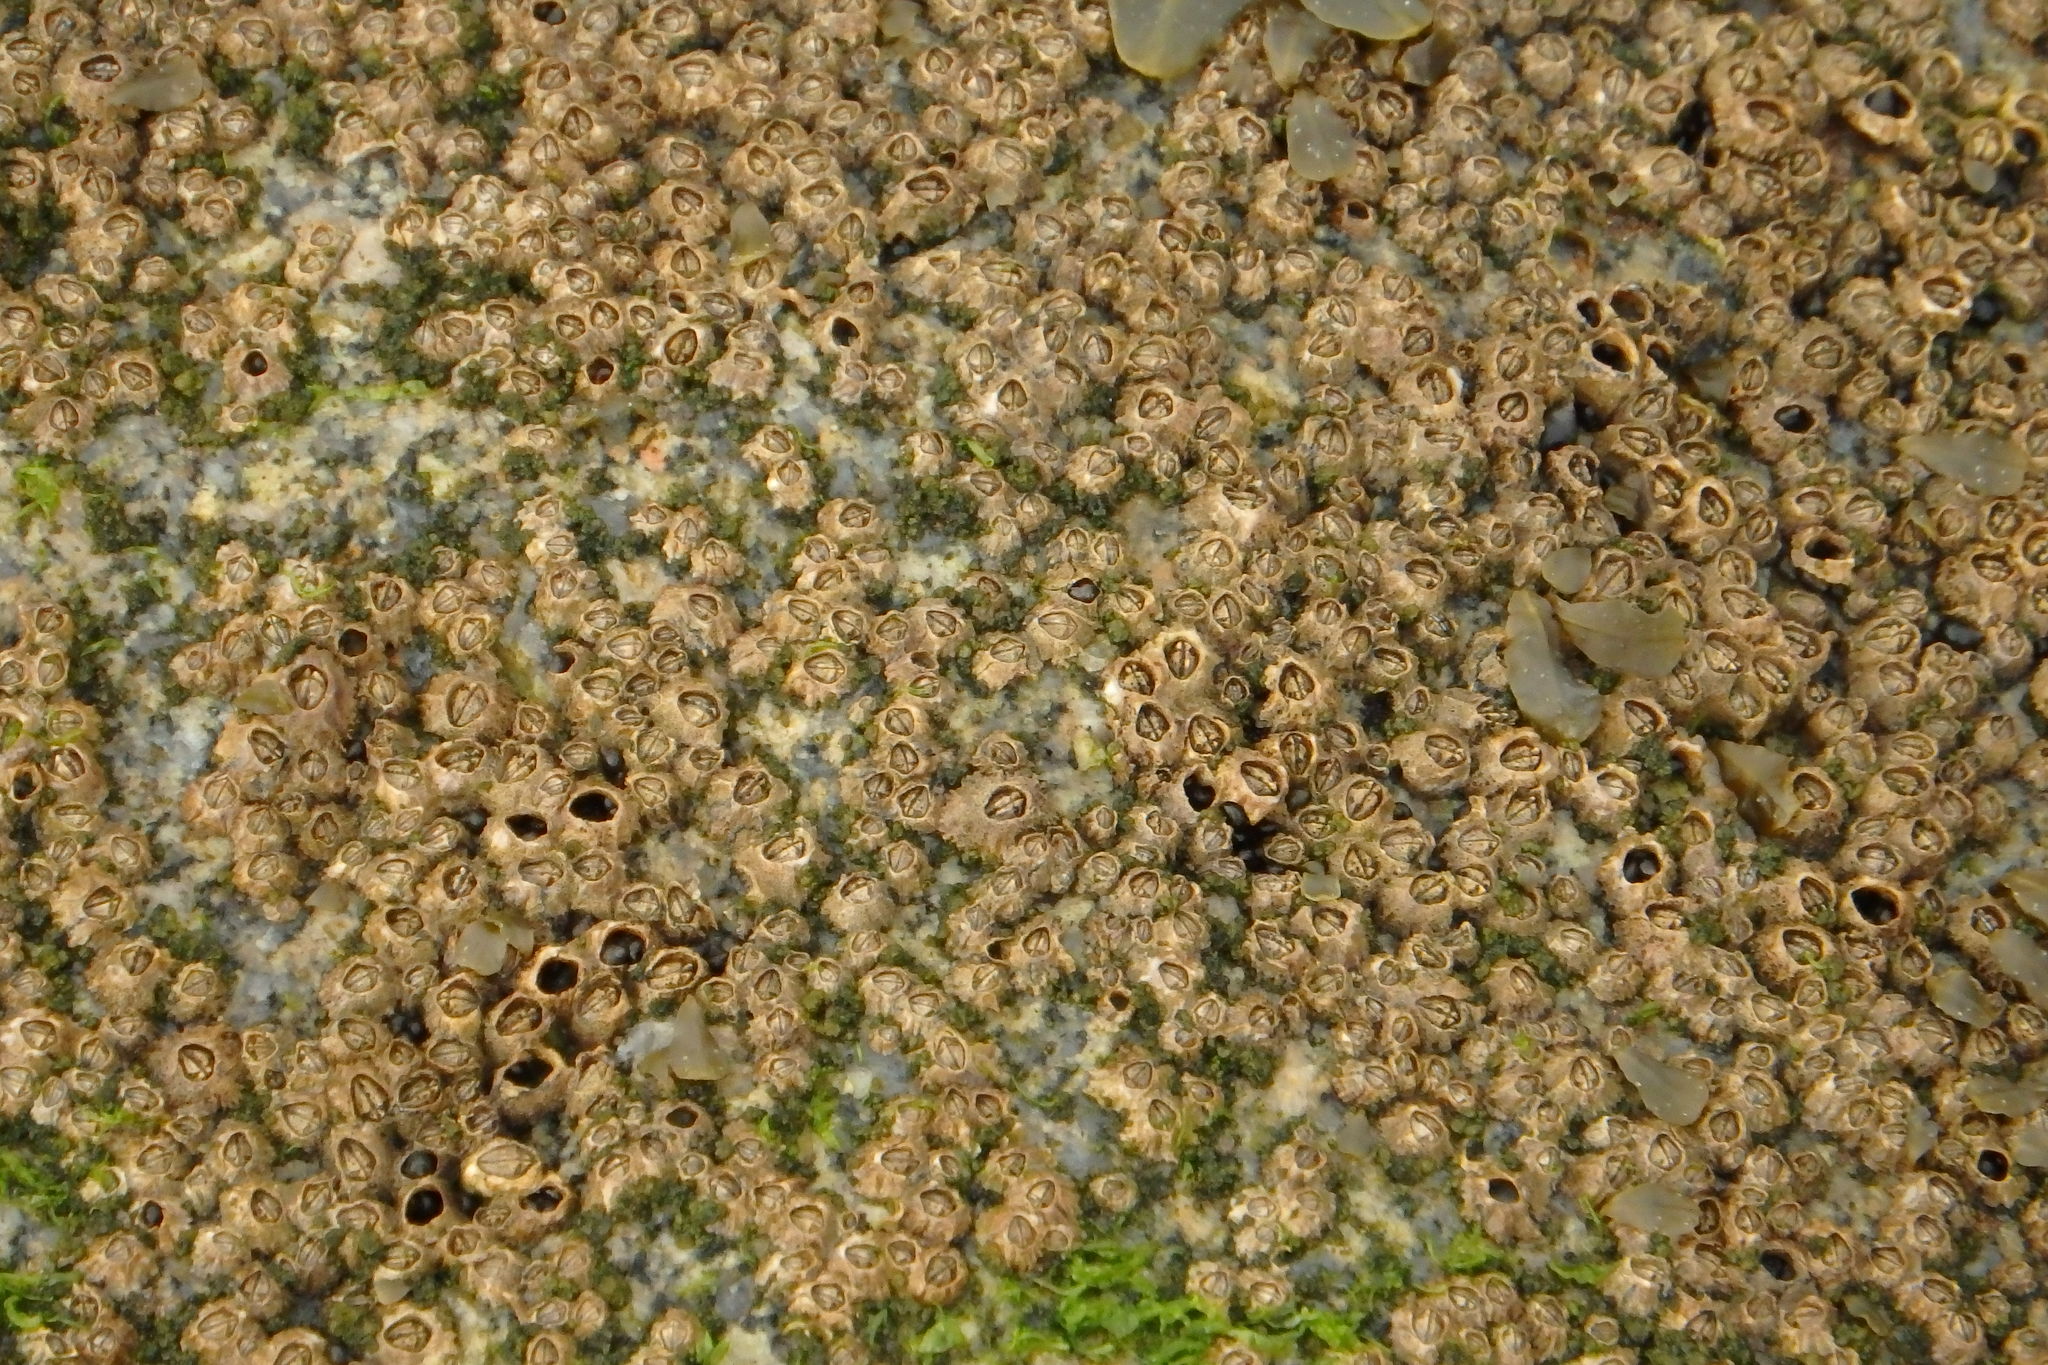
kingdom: Animalia
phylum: Arthropoda
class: Maxillopoda
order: Sessilia
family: Chthamalidae
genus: Chthamalus
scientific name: Chthamalus montagui
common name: Montagu's stellate barnacle
